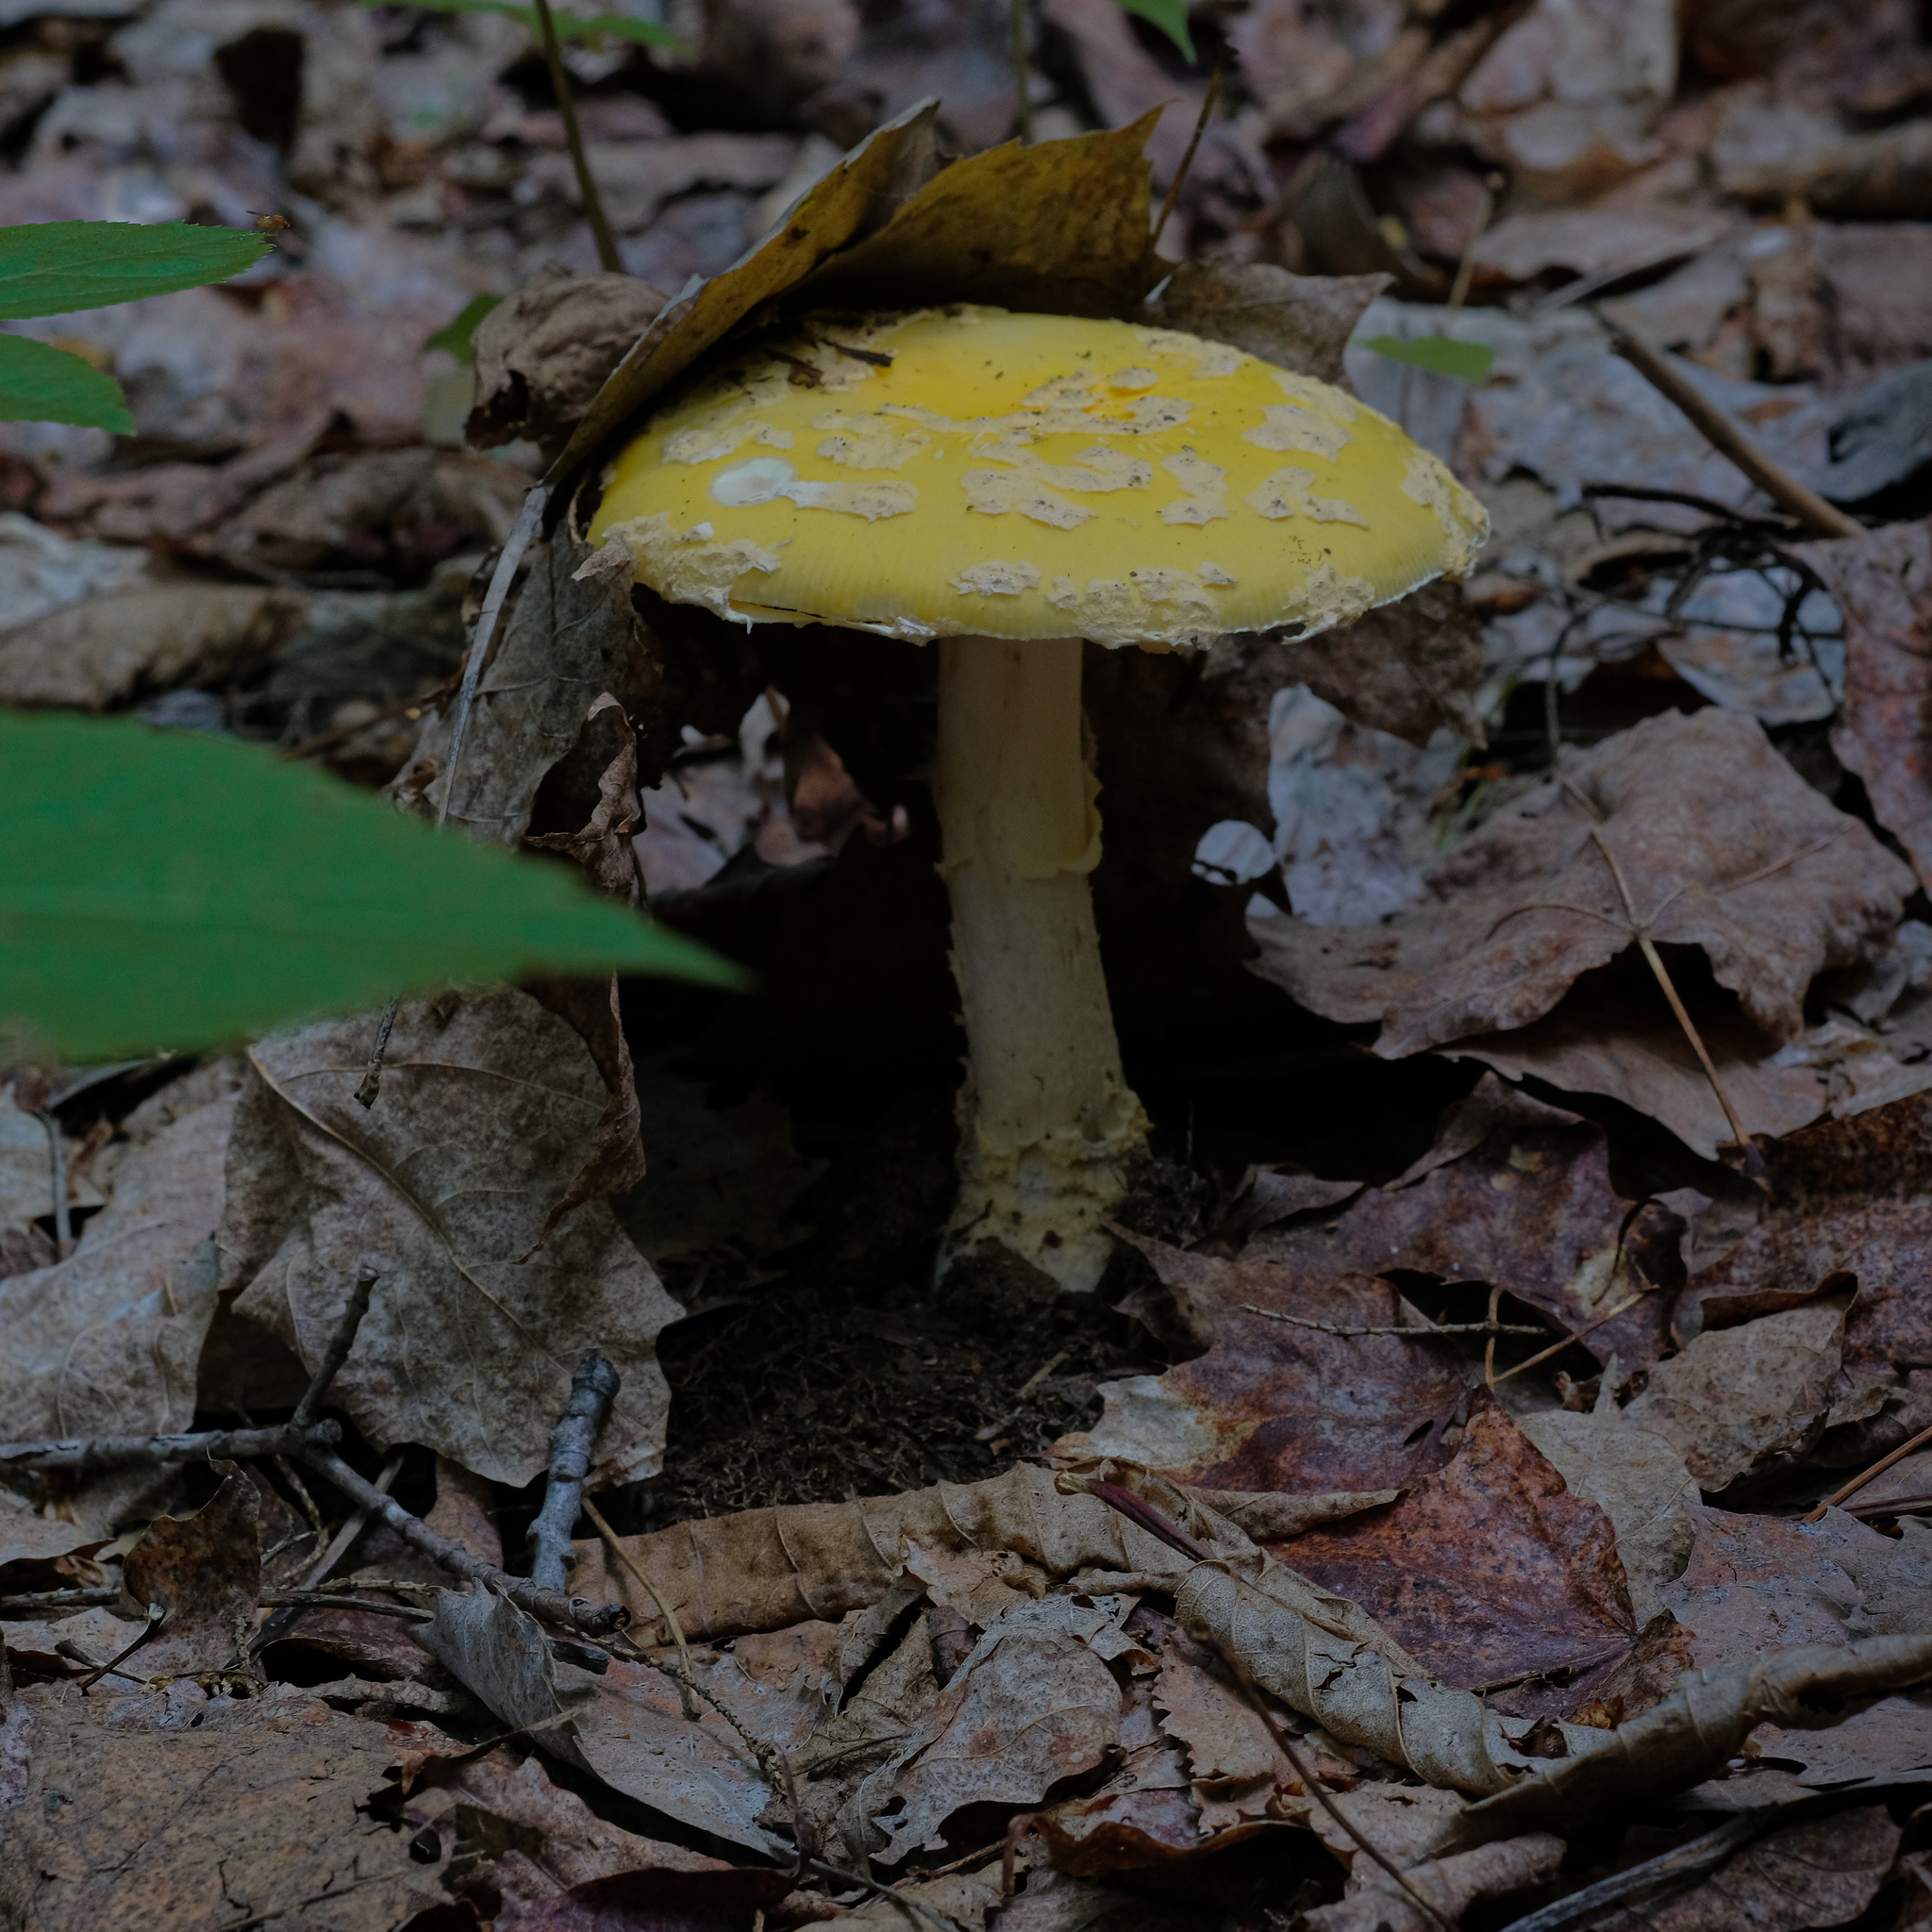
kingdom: Fungi
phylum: Basidiomycota
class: Agaricomycetes
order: Agaricales
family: Amanitaceae
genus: Amanita
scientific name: Amanita muscaria
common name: Fly agaric
